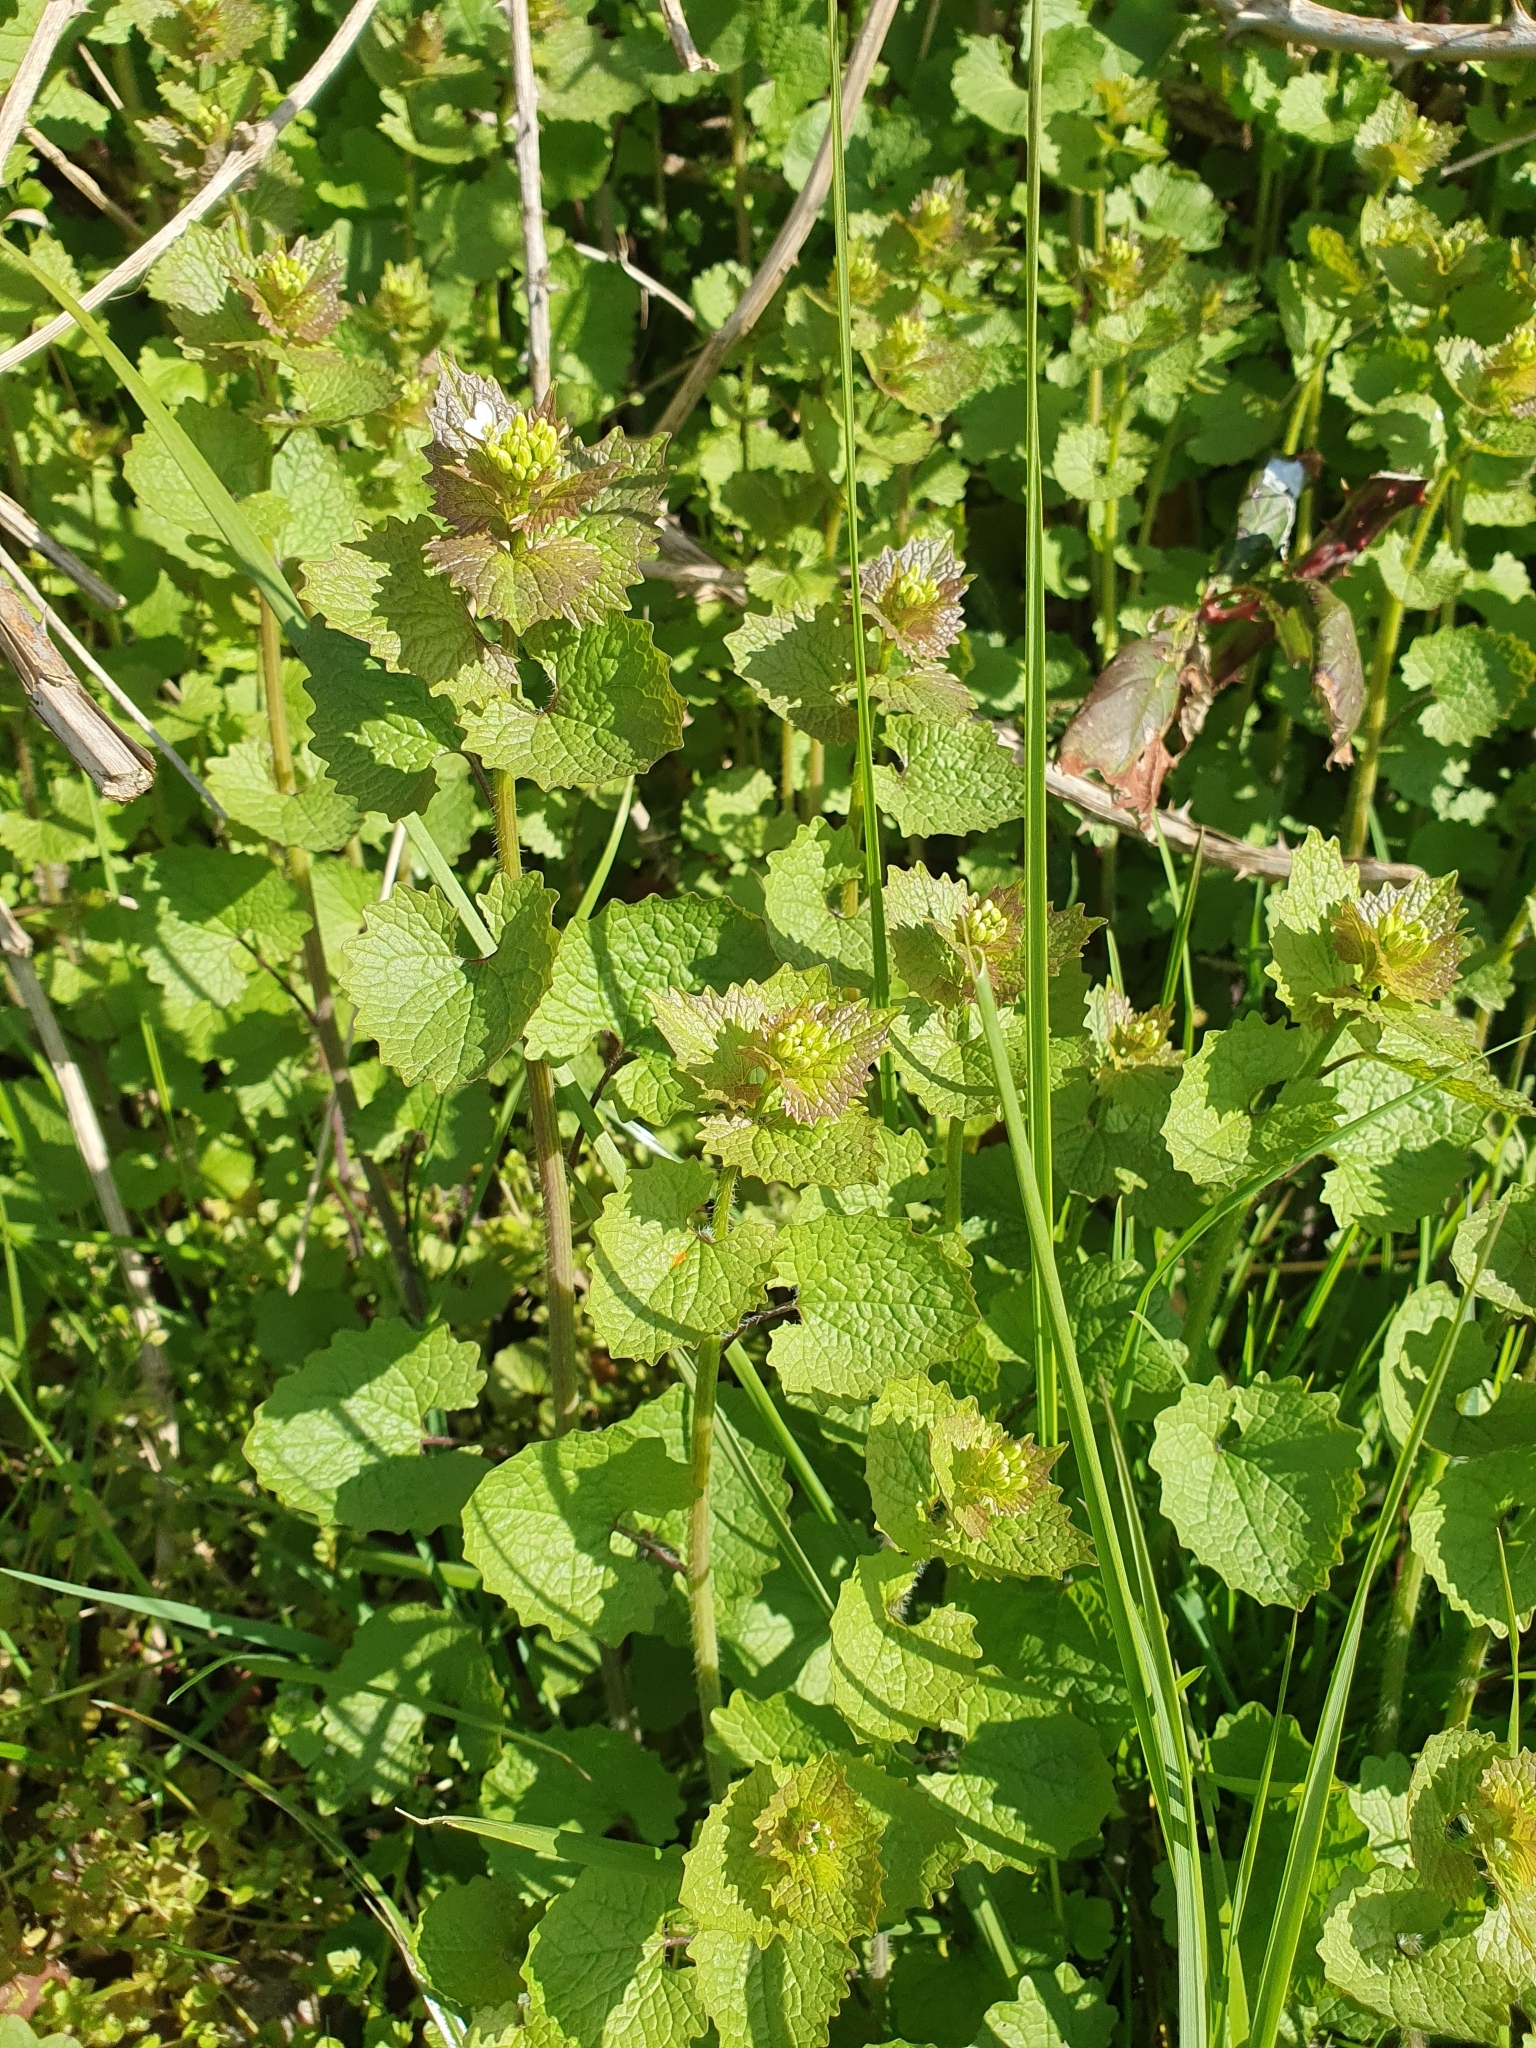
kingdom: Plantae
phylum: Tracheophyta
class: Magnoliopsida
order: Brassicales
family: Brassicaceae
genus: Alliaria
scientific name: Alliaria petiolata
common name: Garlic mustard
